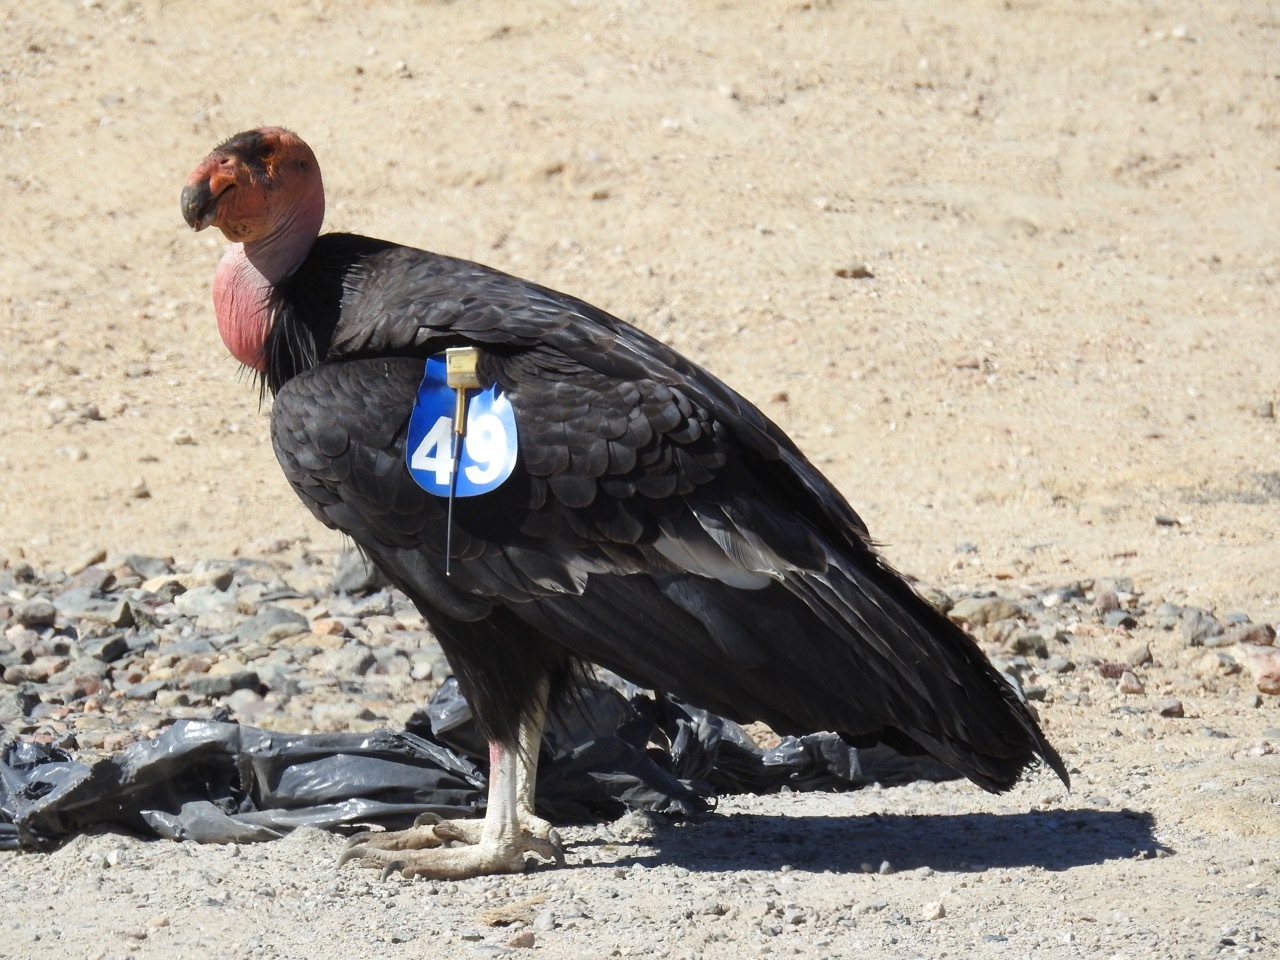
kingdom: Animalia
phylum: Chordata
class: Aves
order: Accipitriformes
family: Cathartidae
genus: Gymnogyps
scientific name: Gymnogyps californianus
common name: California condor
